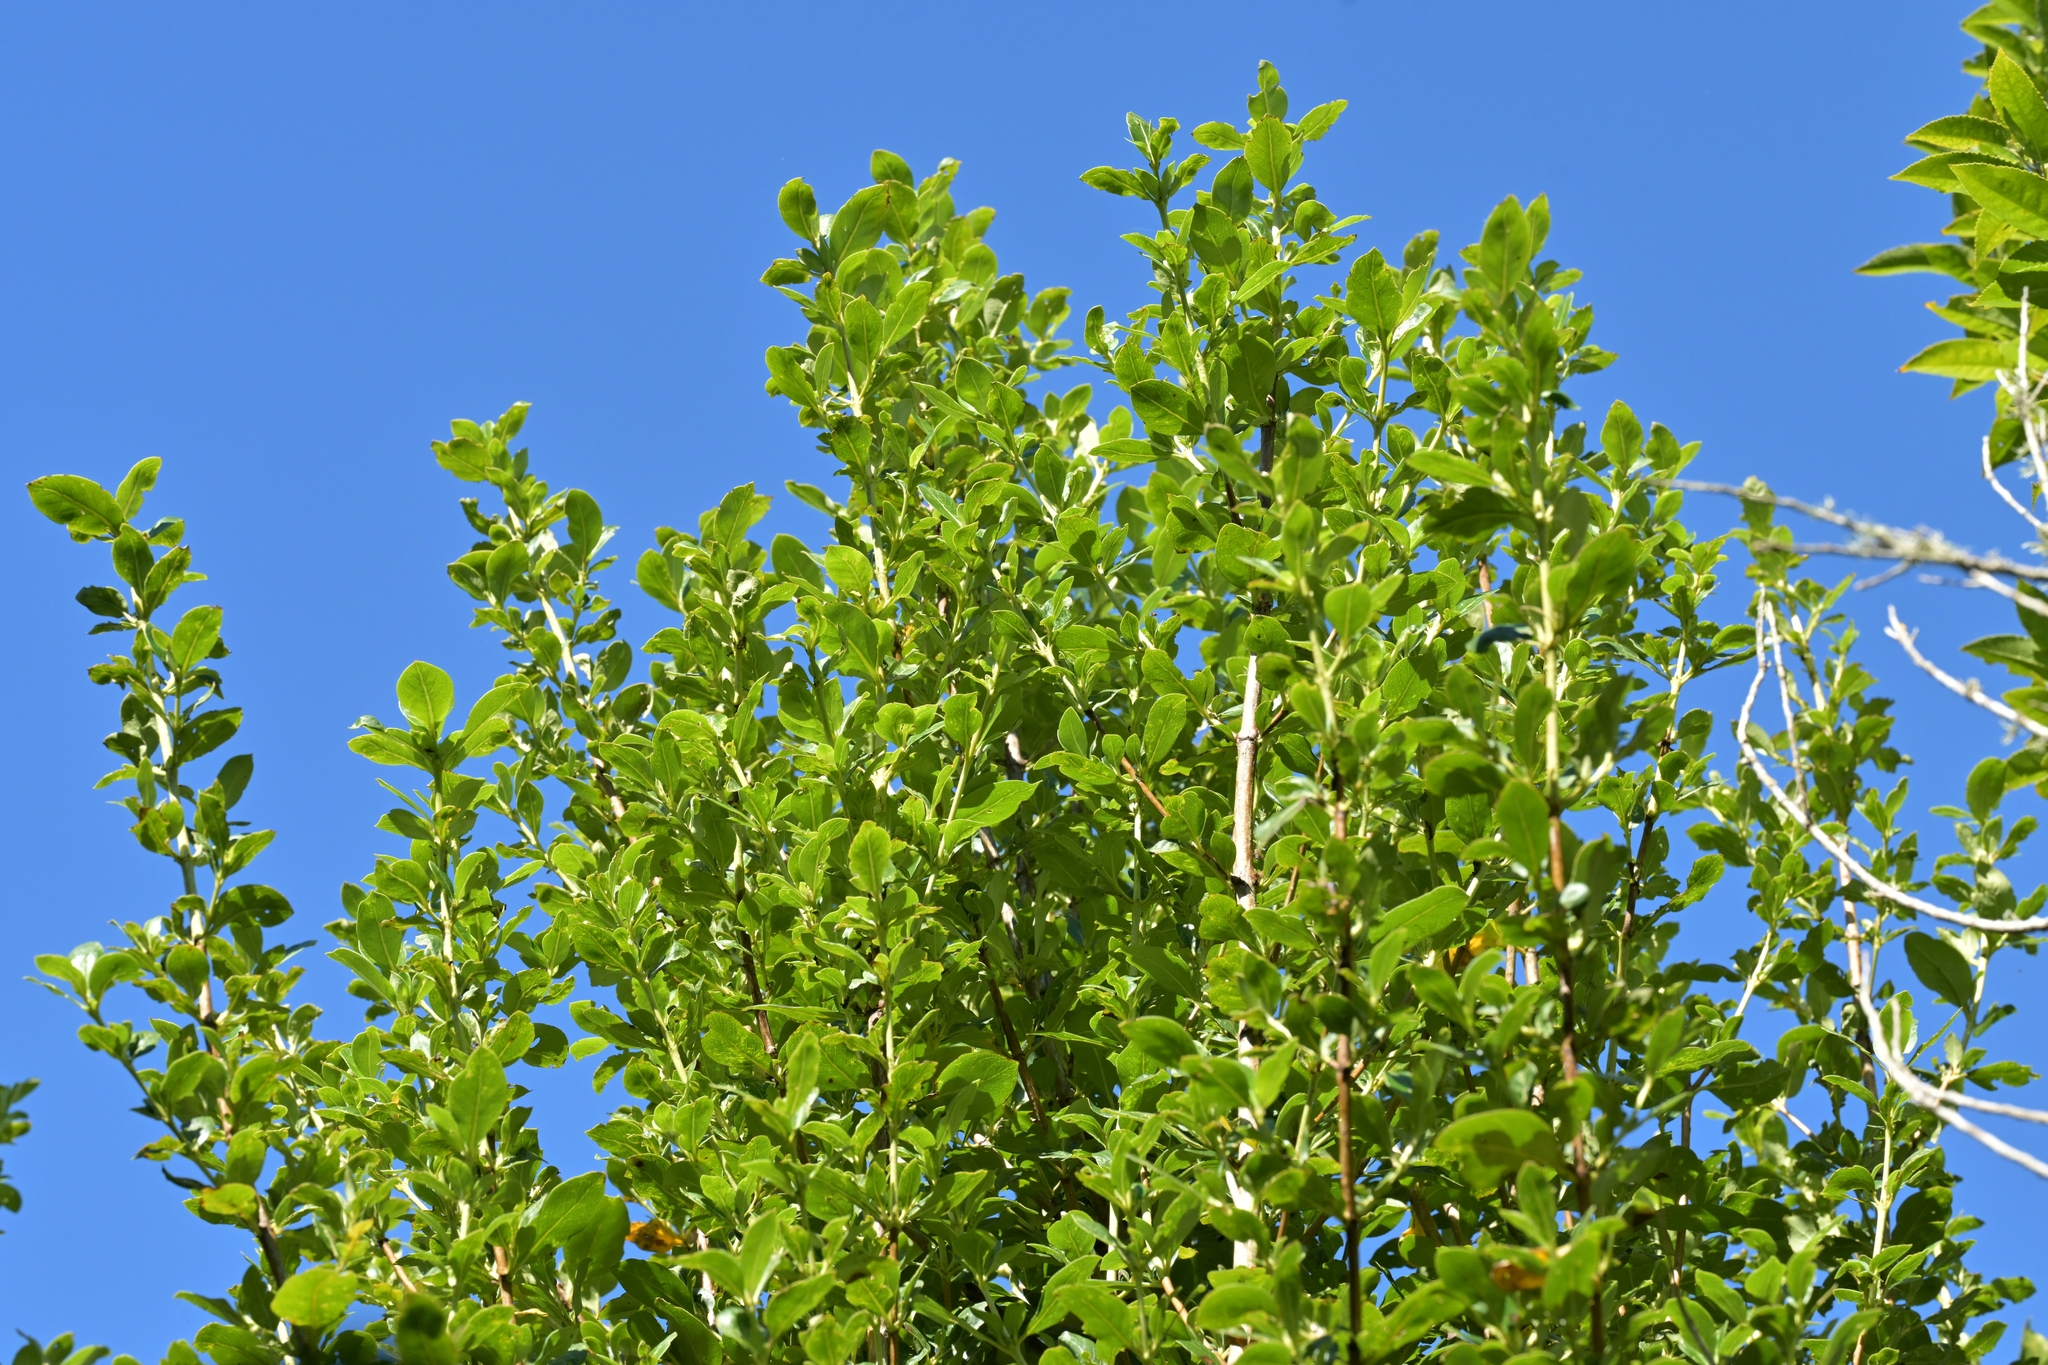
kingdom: Plantae
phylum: Tracheophyta
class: Magnoliopsida
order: Gentianales
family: Rubiaceae
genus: Coprosma
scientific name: Coprosma robusta
